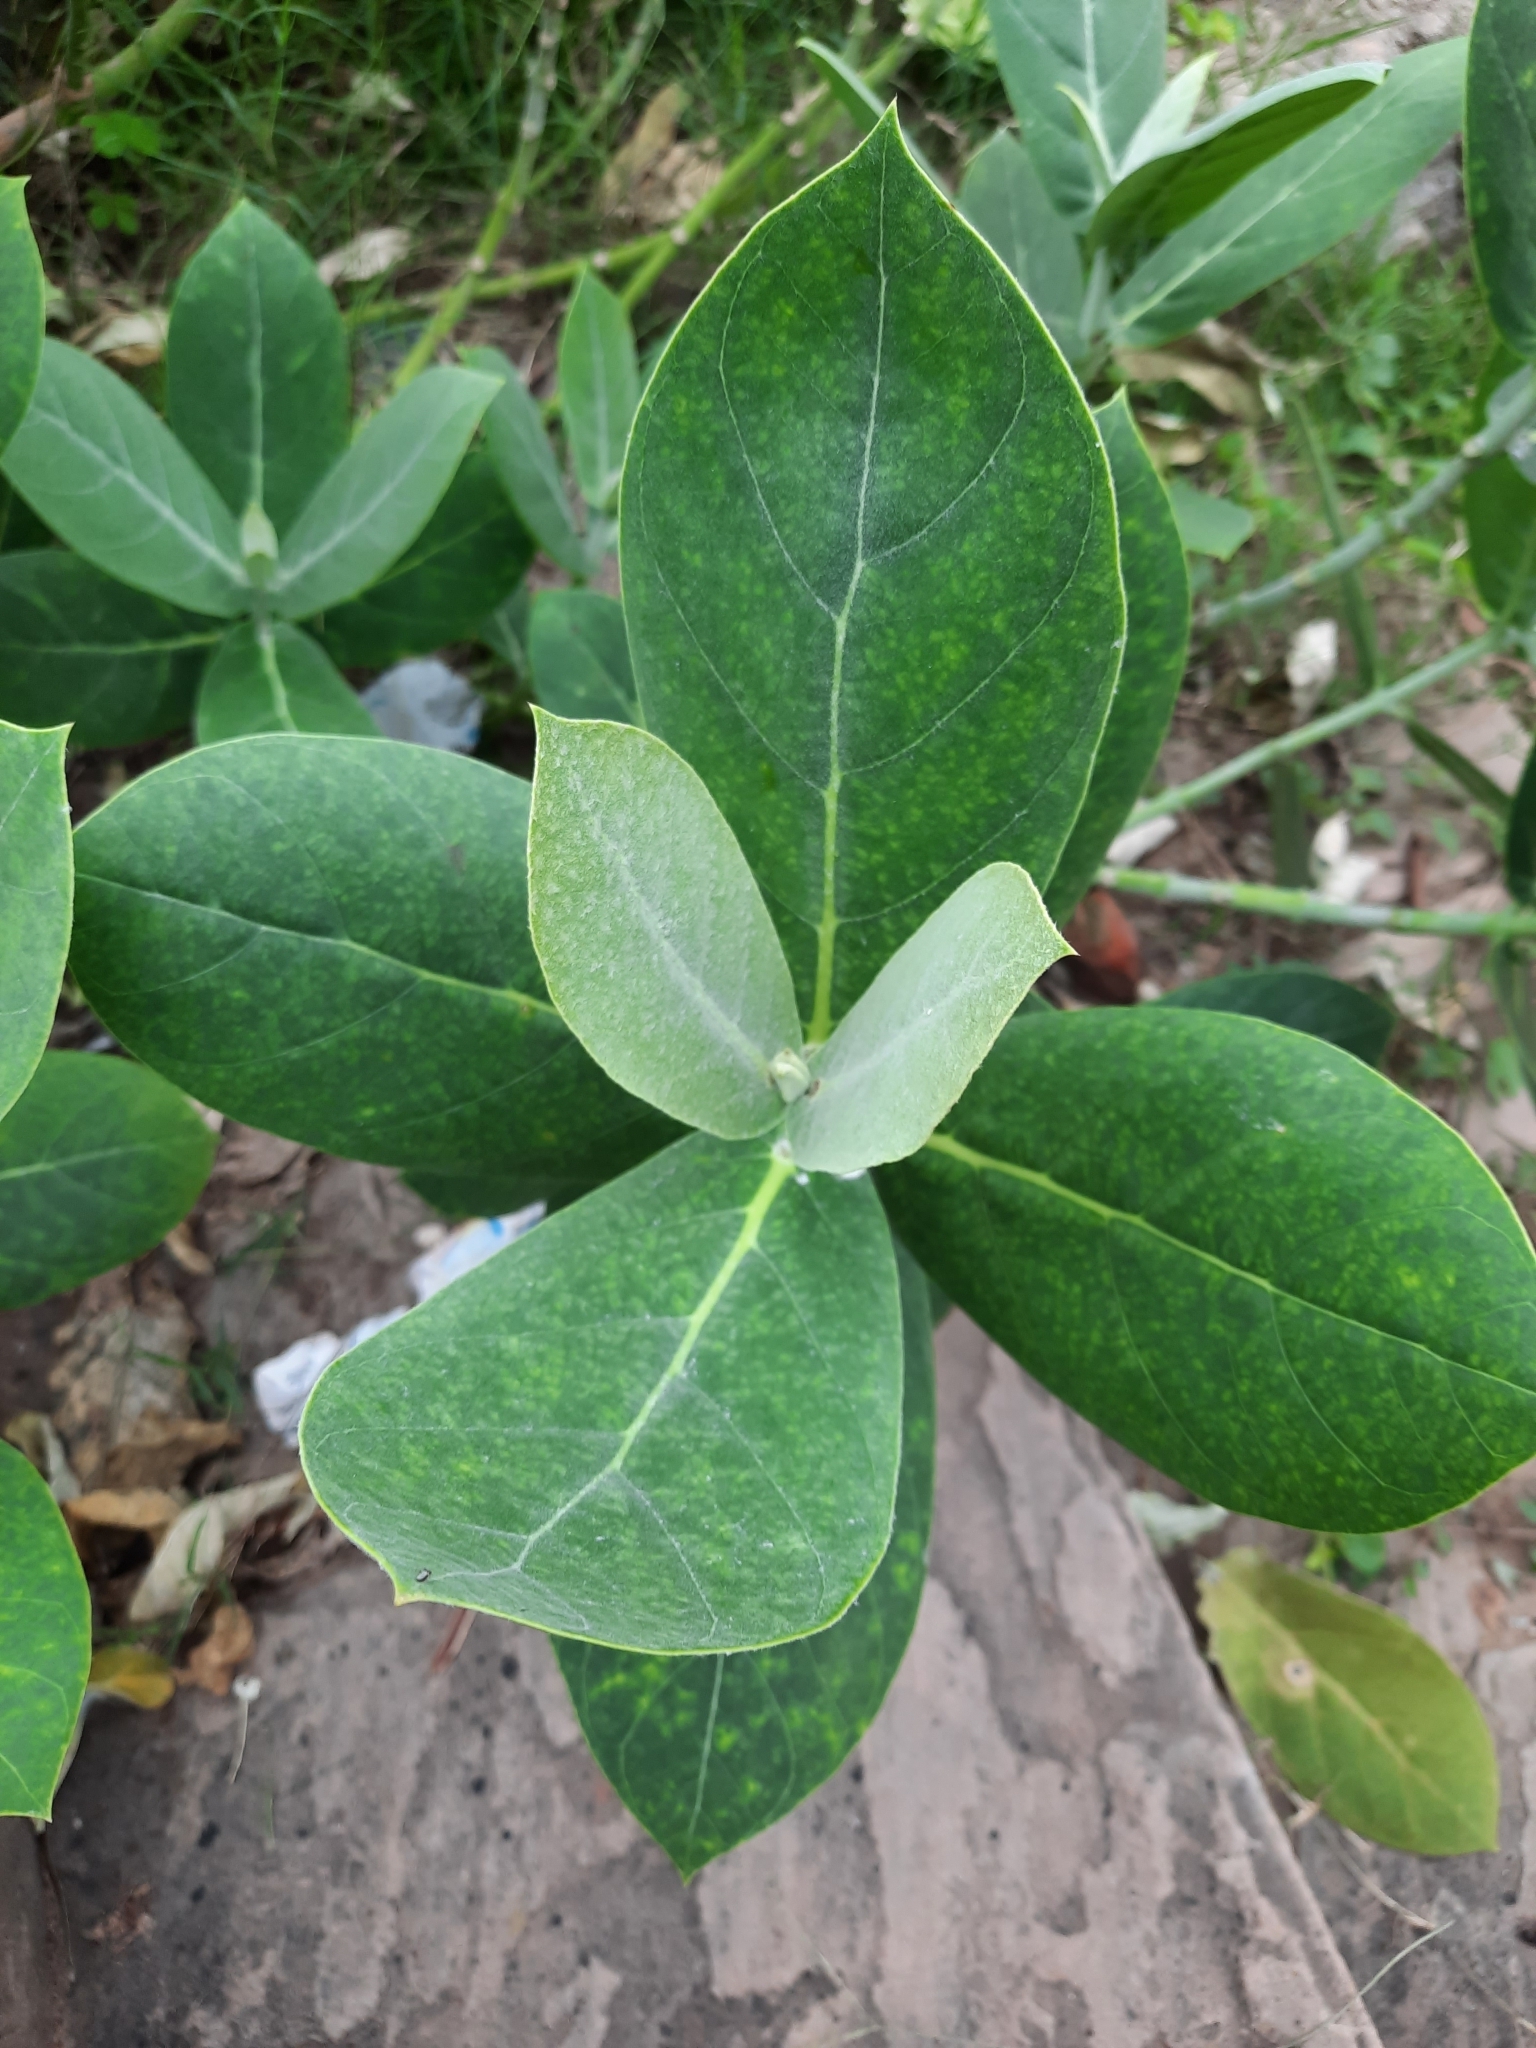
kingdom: Plantae
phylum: Tracheophyta
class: Magnoliopsida
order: Gentianales
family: Apocynaceae
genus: Calotropis
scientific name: Calotropis procera
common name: Roostertree
